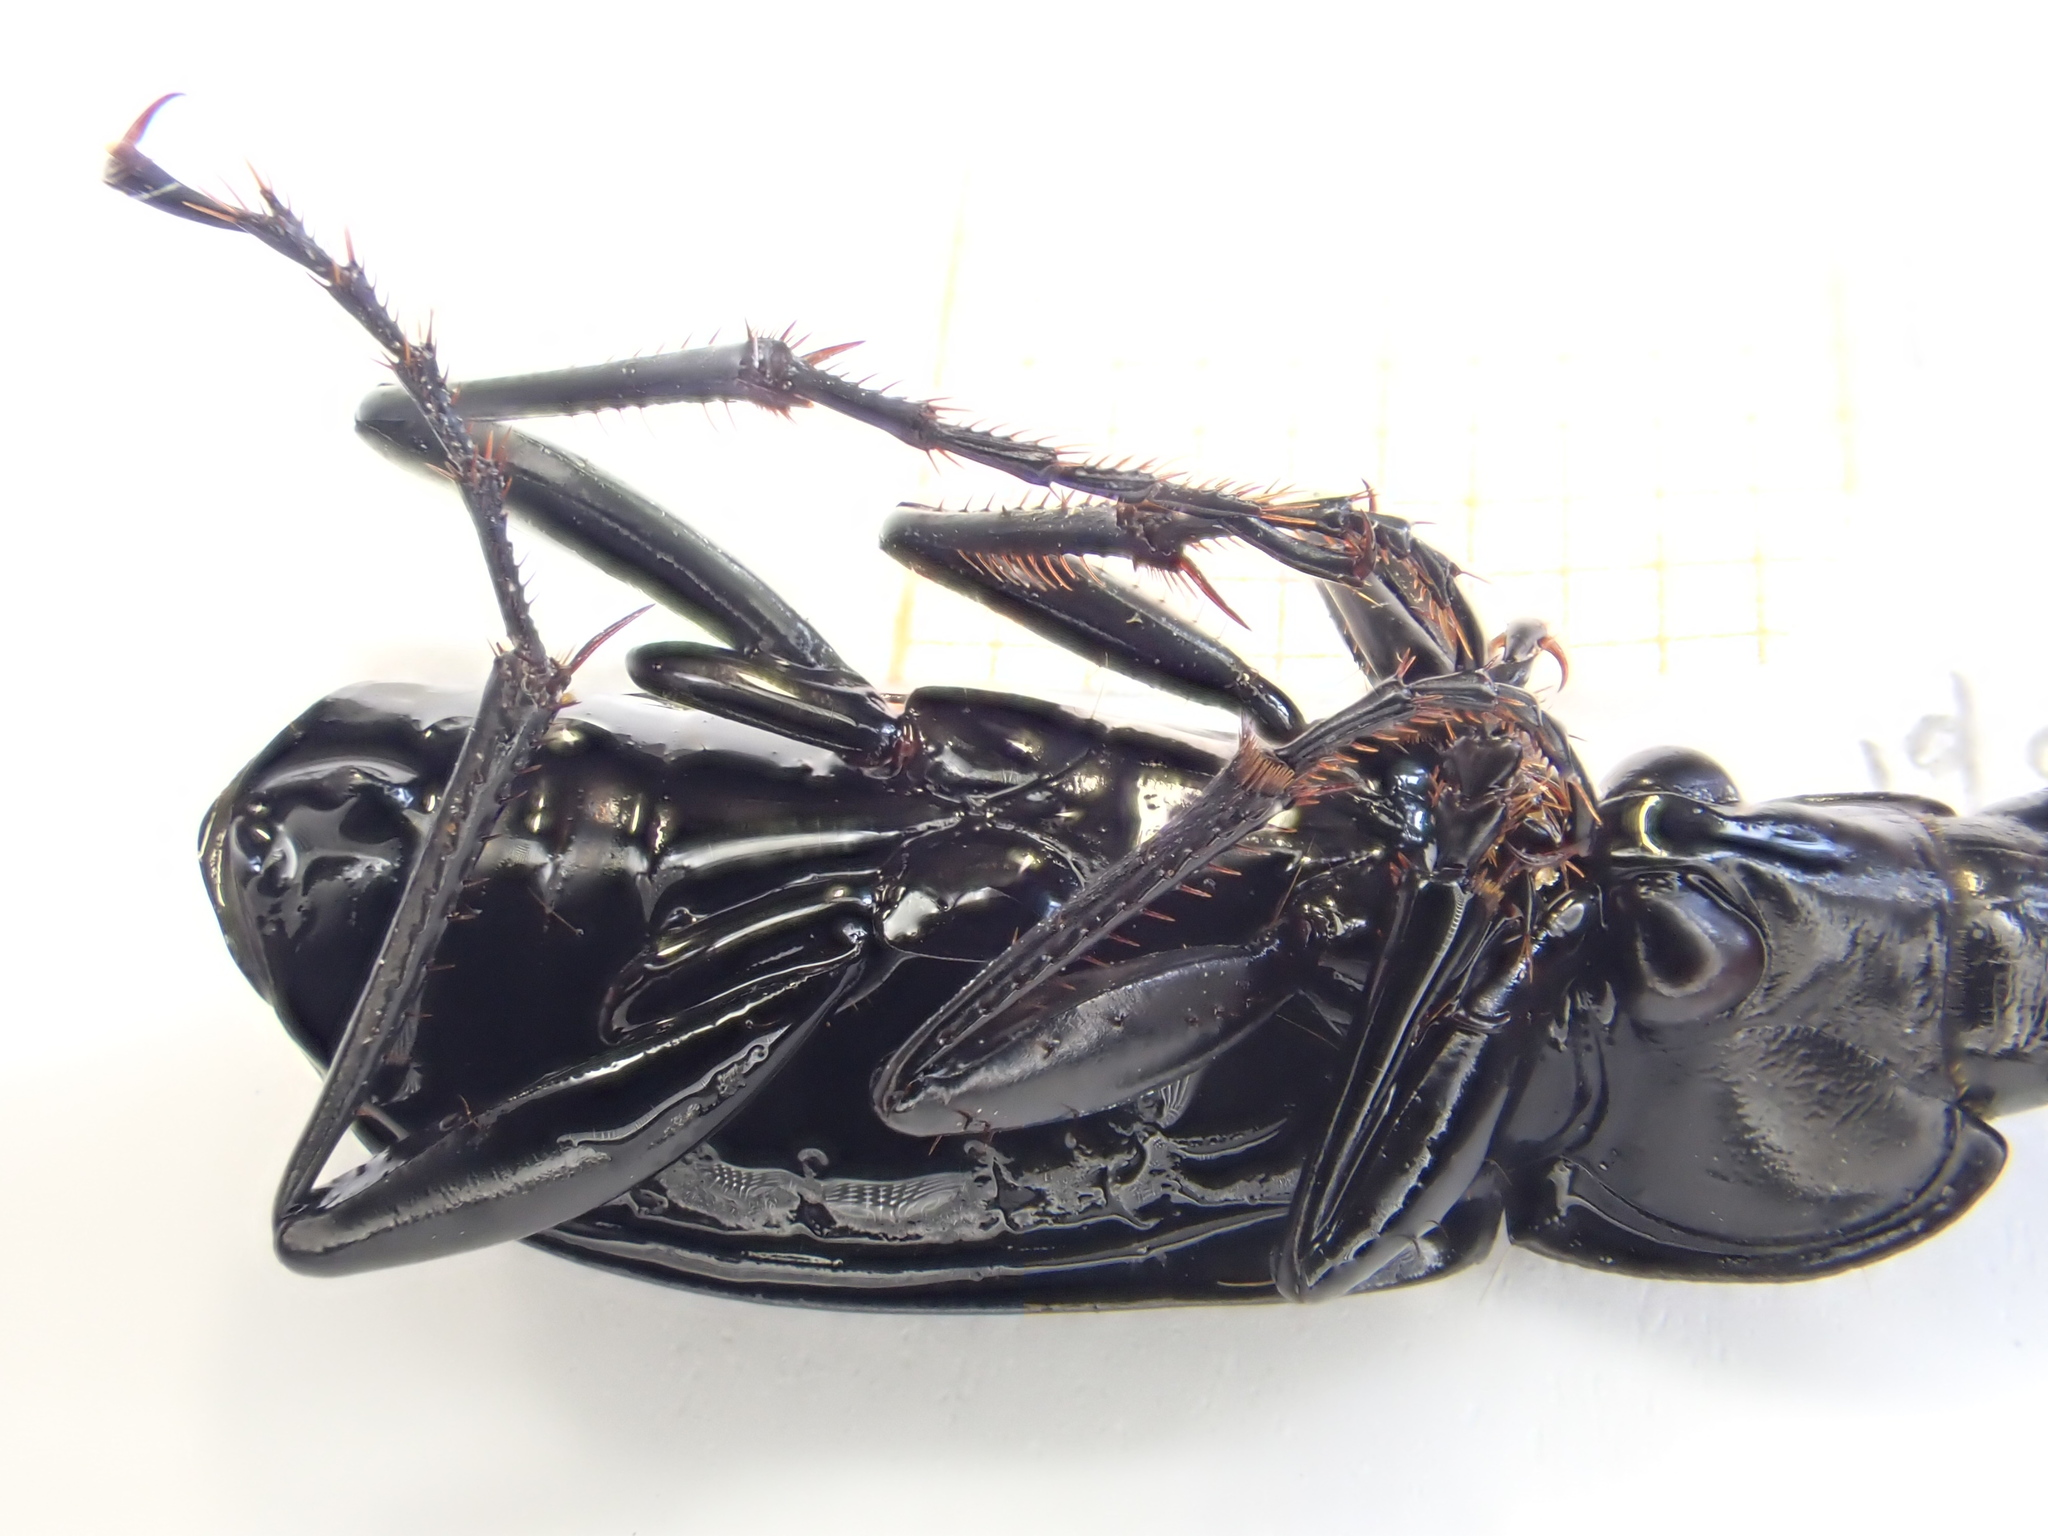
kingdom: Animalia
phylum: Arthropoda
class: Insecta
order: Coleoptera
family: Carabidae
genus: Pterostichus
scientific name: Pterostichus niger
